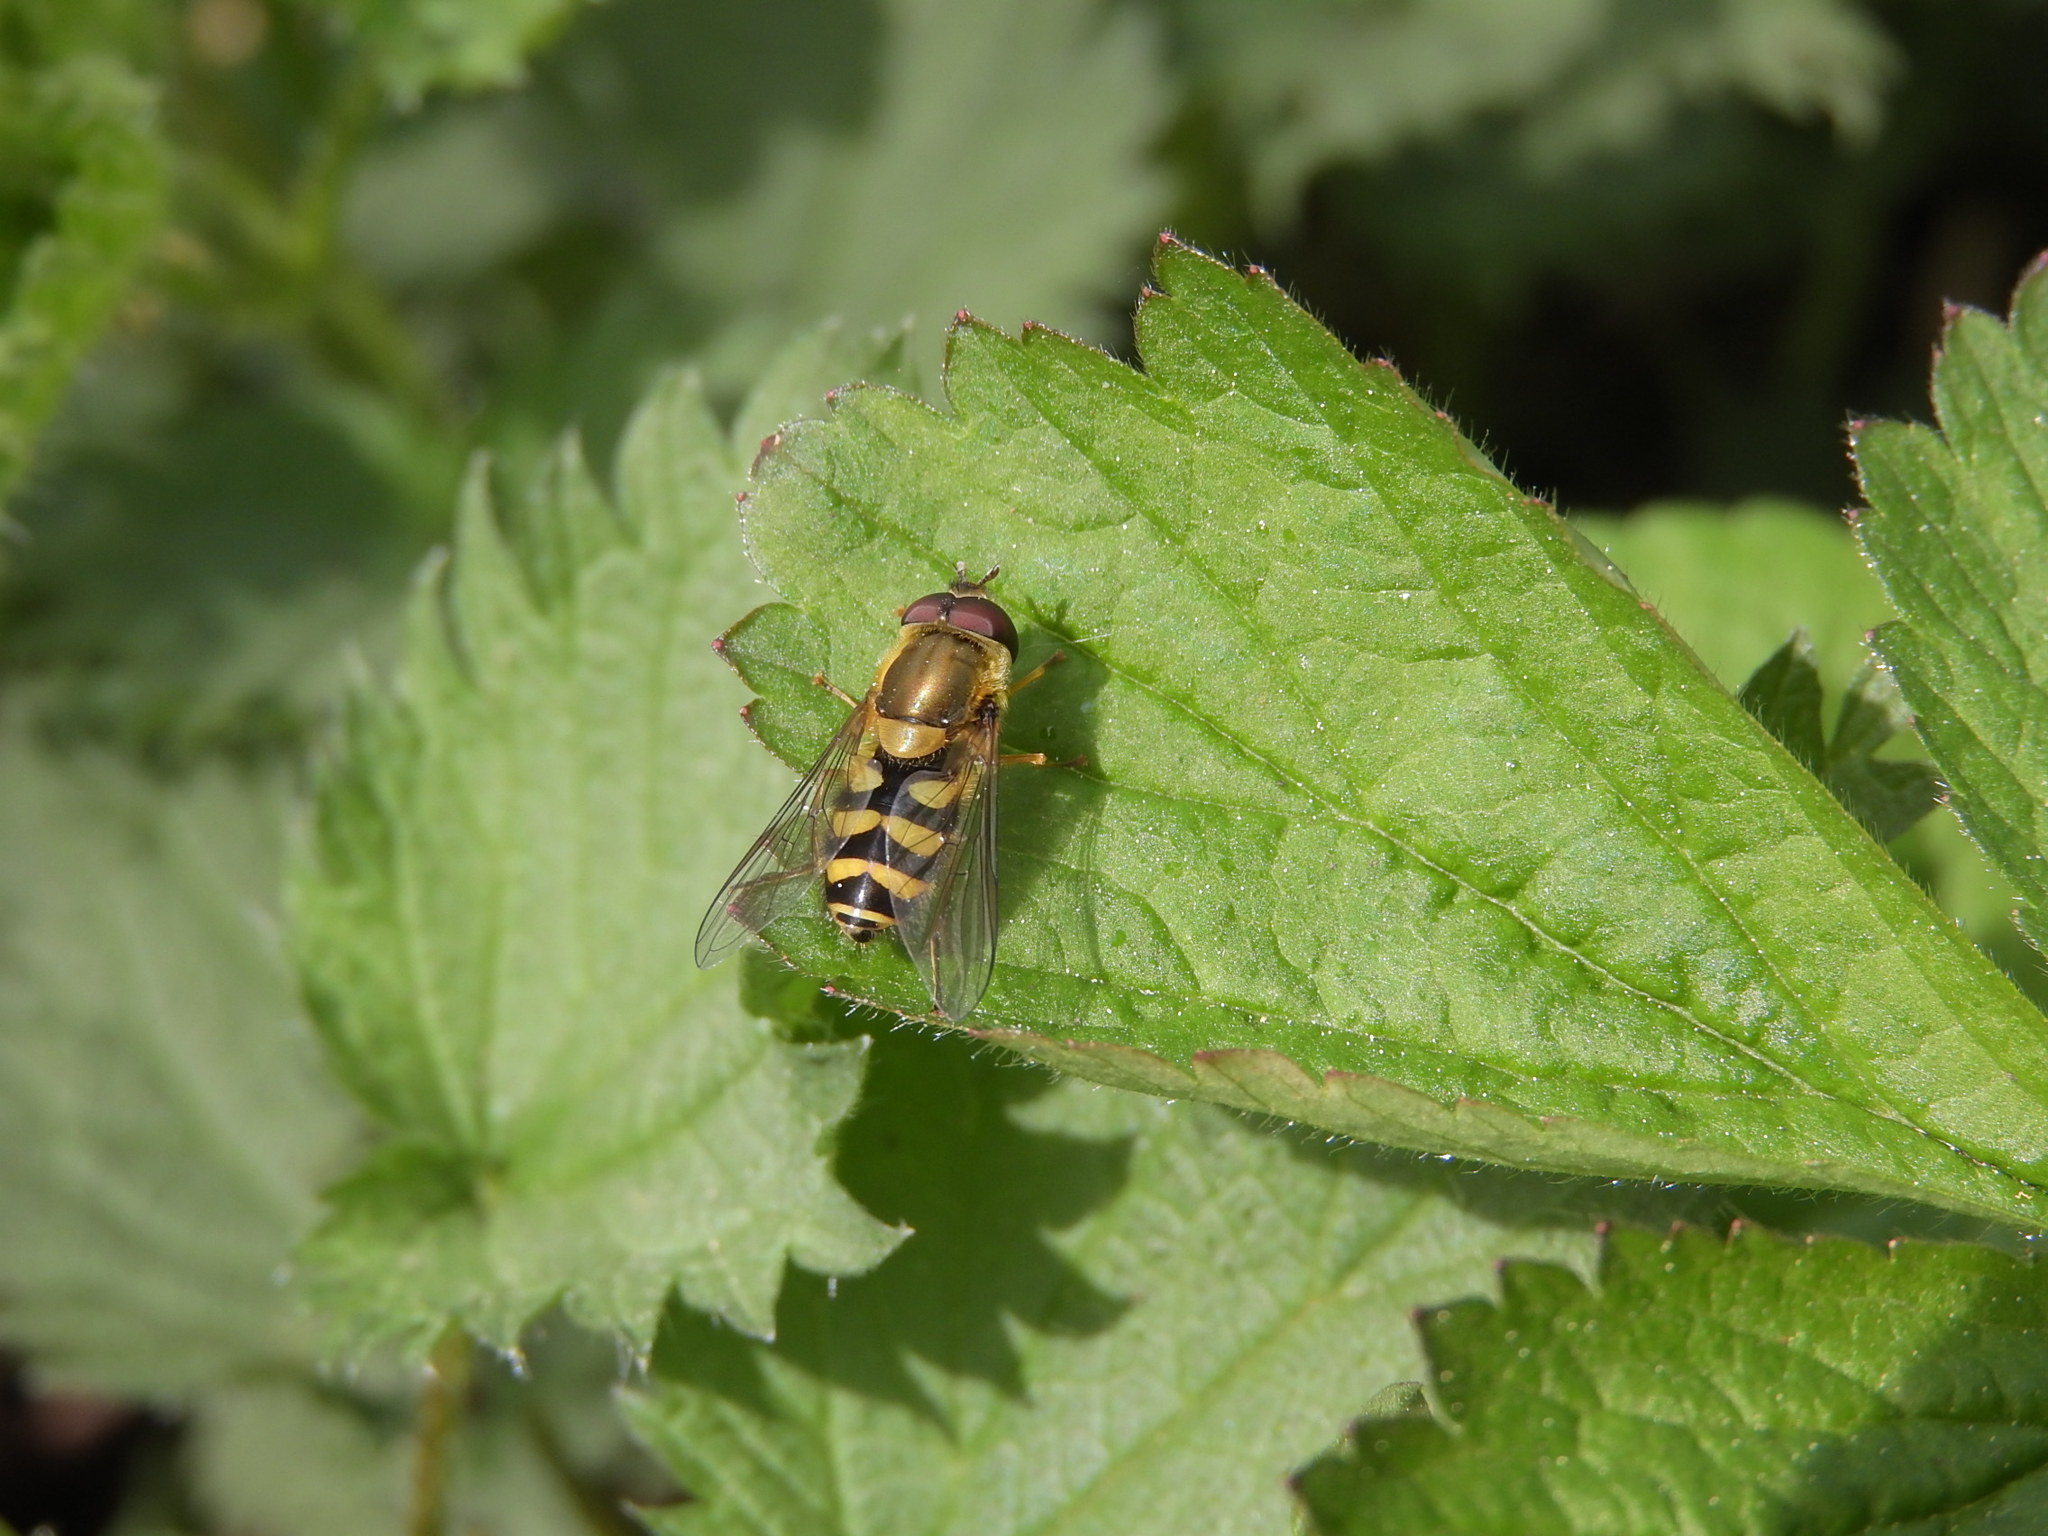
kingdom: Animalia
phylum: Arthropoda
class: Insecta
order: Diptera
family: Syrphidae
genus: Syrphus
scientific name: Syrphus
